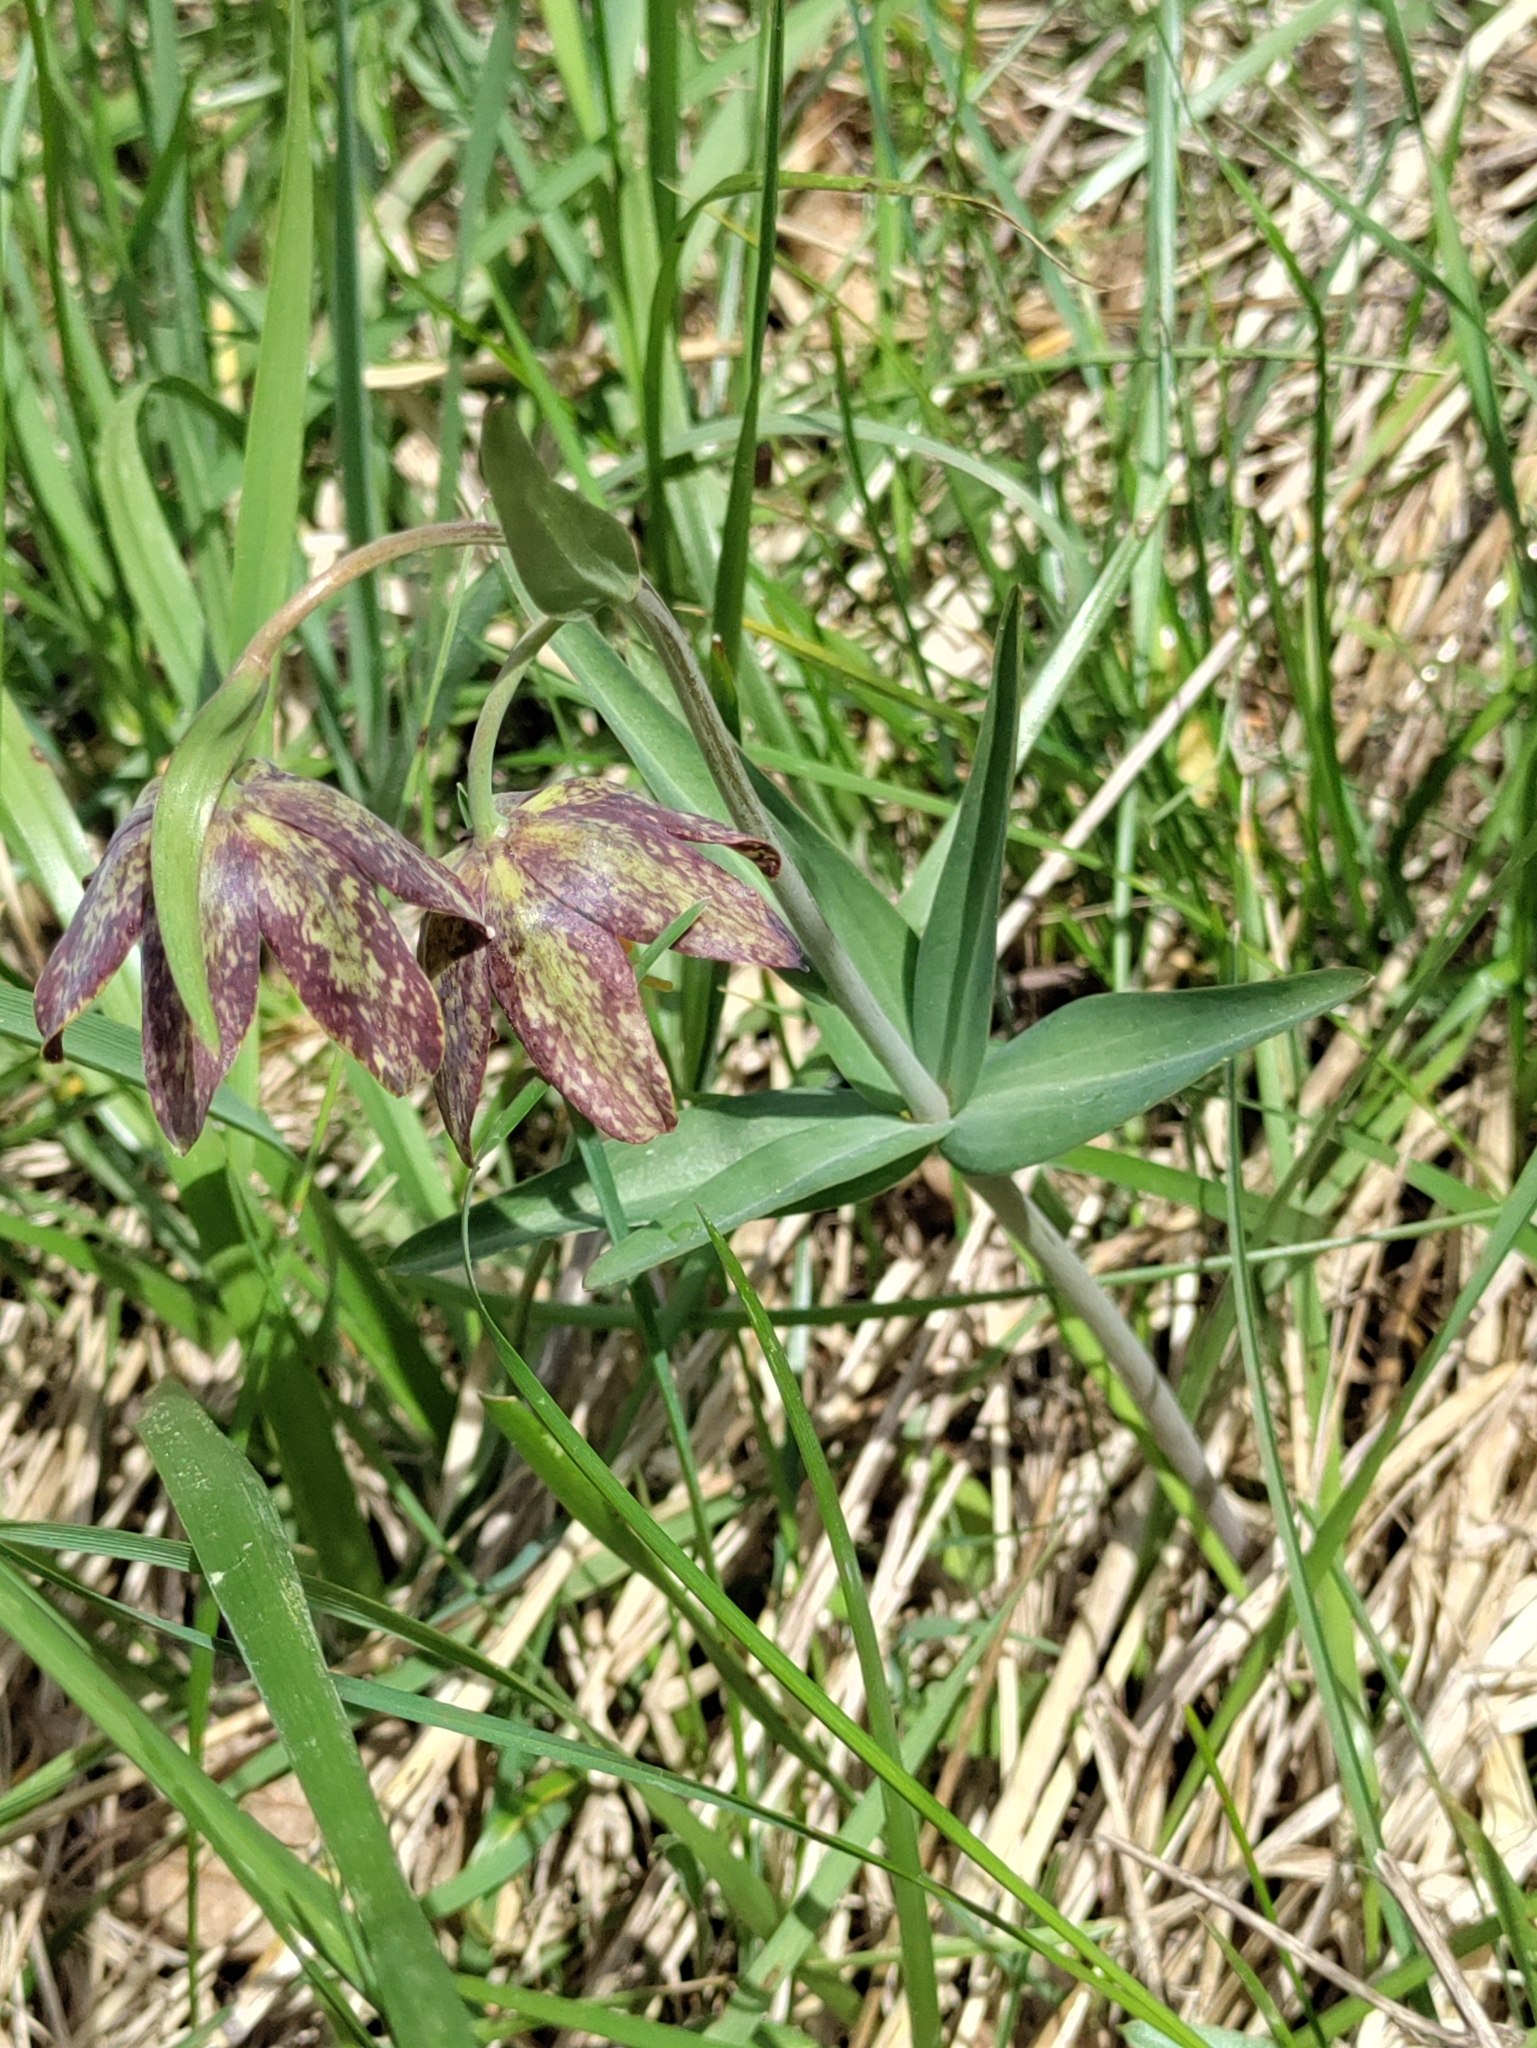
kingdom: Plantae
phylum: Tracheophyta
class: Liliopsida
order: Liliales
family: Liliaceae
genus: Fritillaria
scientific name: Fritillaria affinis
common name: Ojai fritillary
